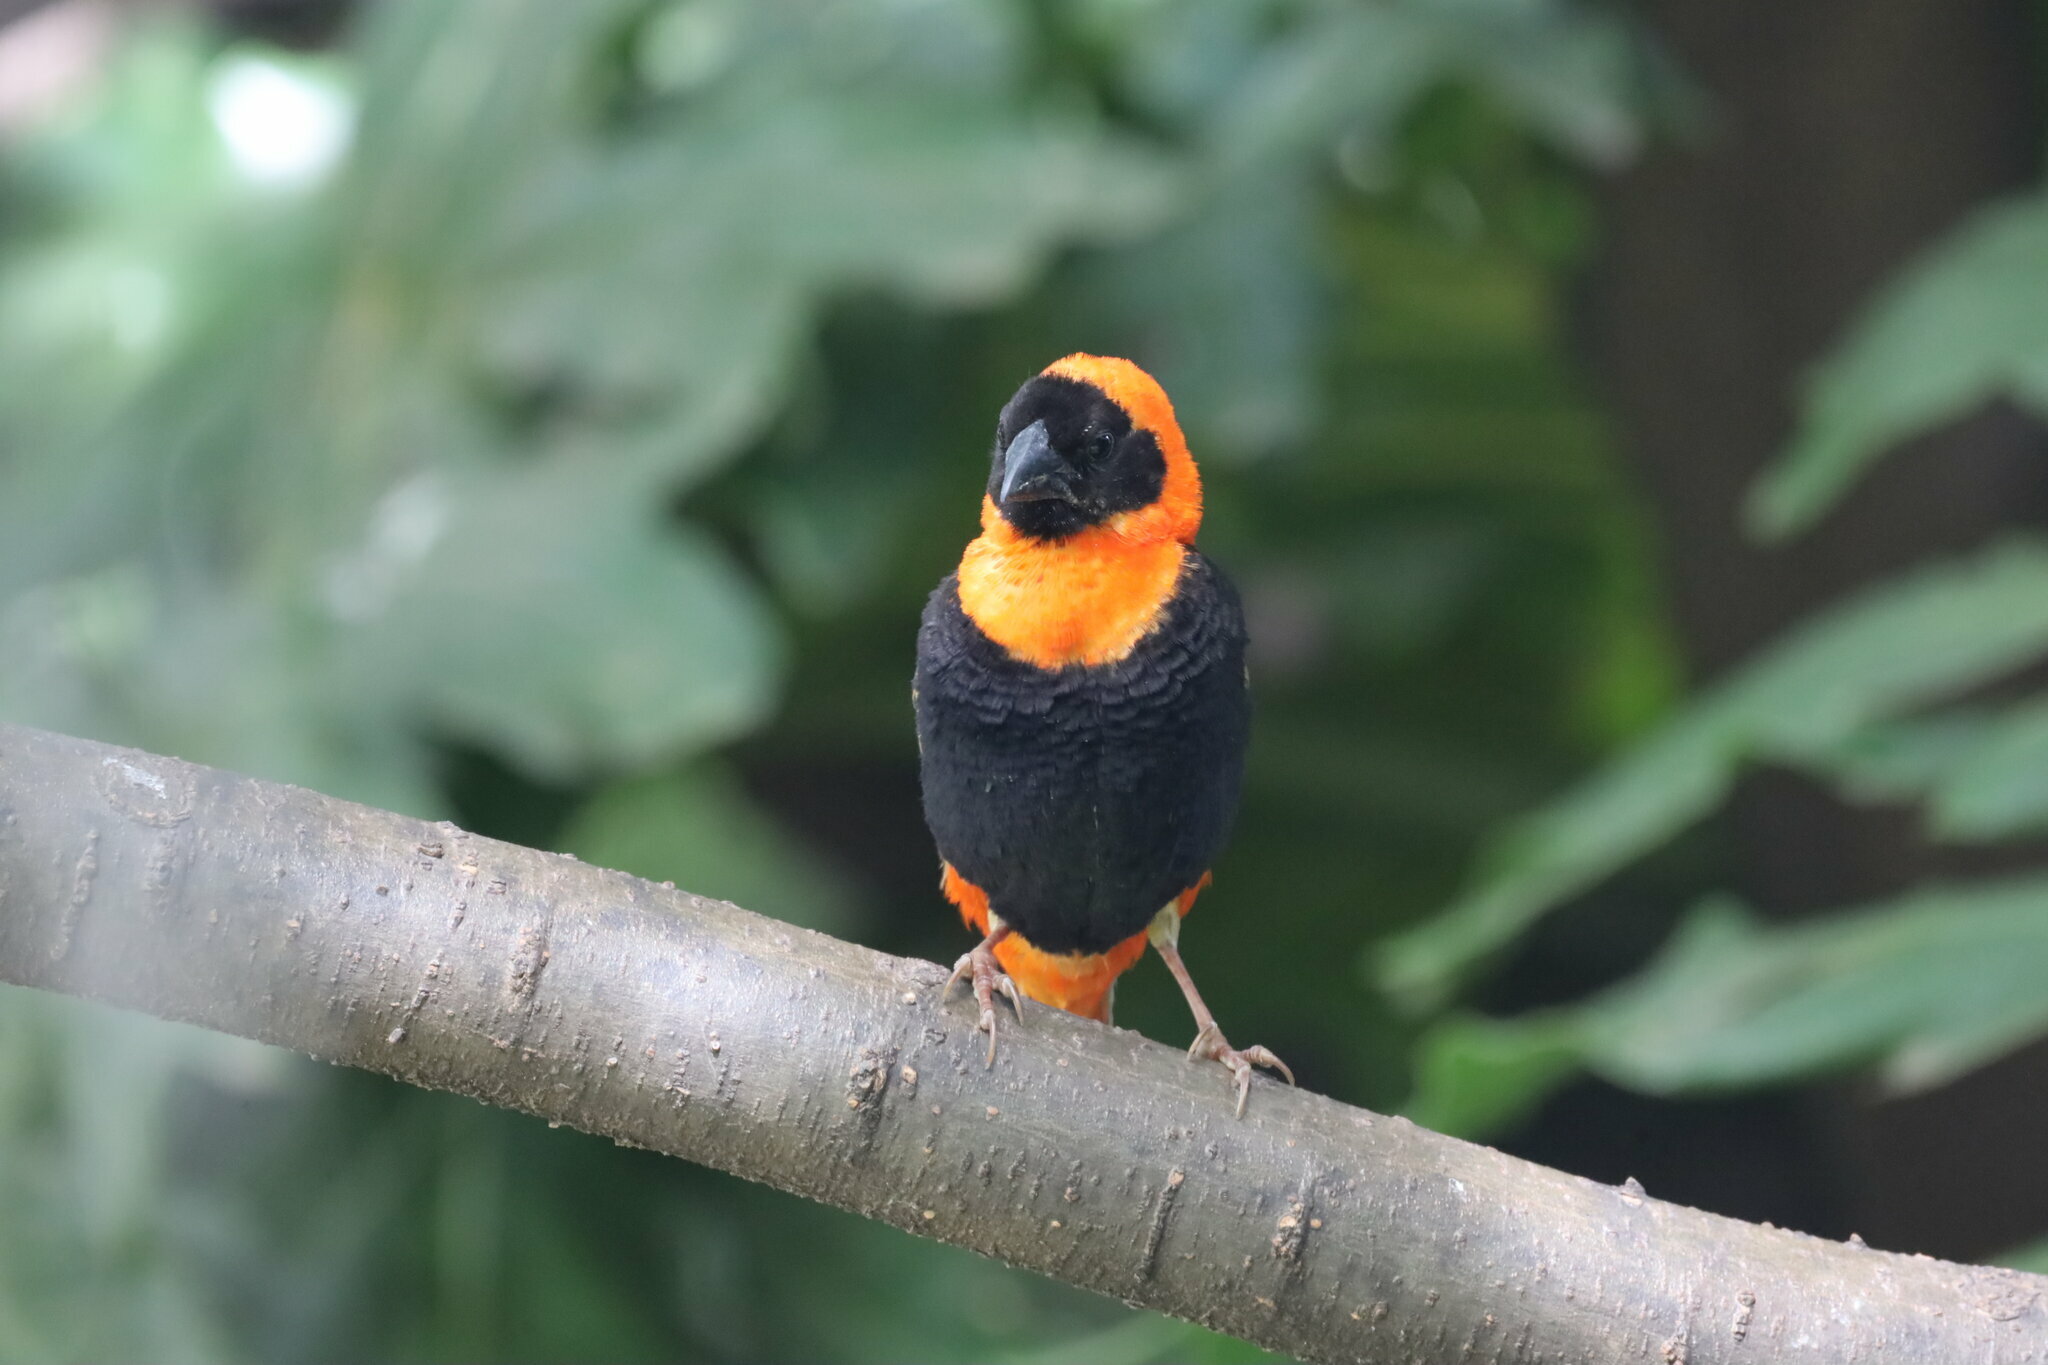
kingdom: Animalia
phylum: Chordata
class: Aves
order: Passeriformes
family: Ploceidae
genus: Euplectes
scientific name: Euplectes orix
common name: Southern red bishop
